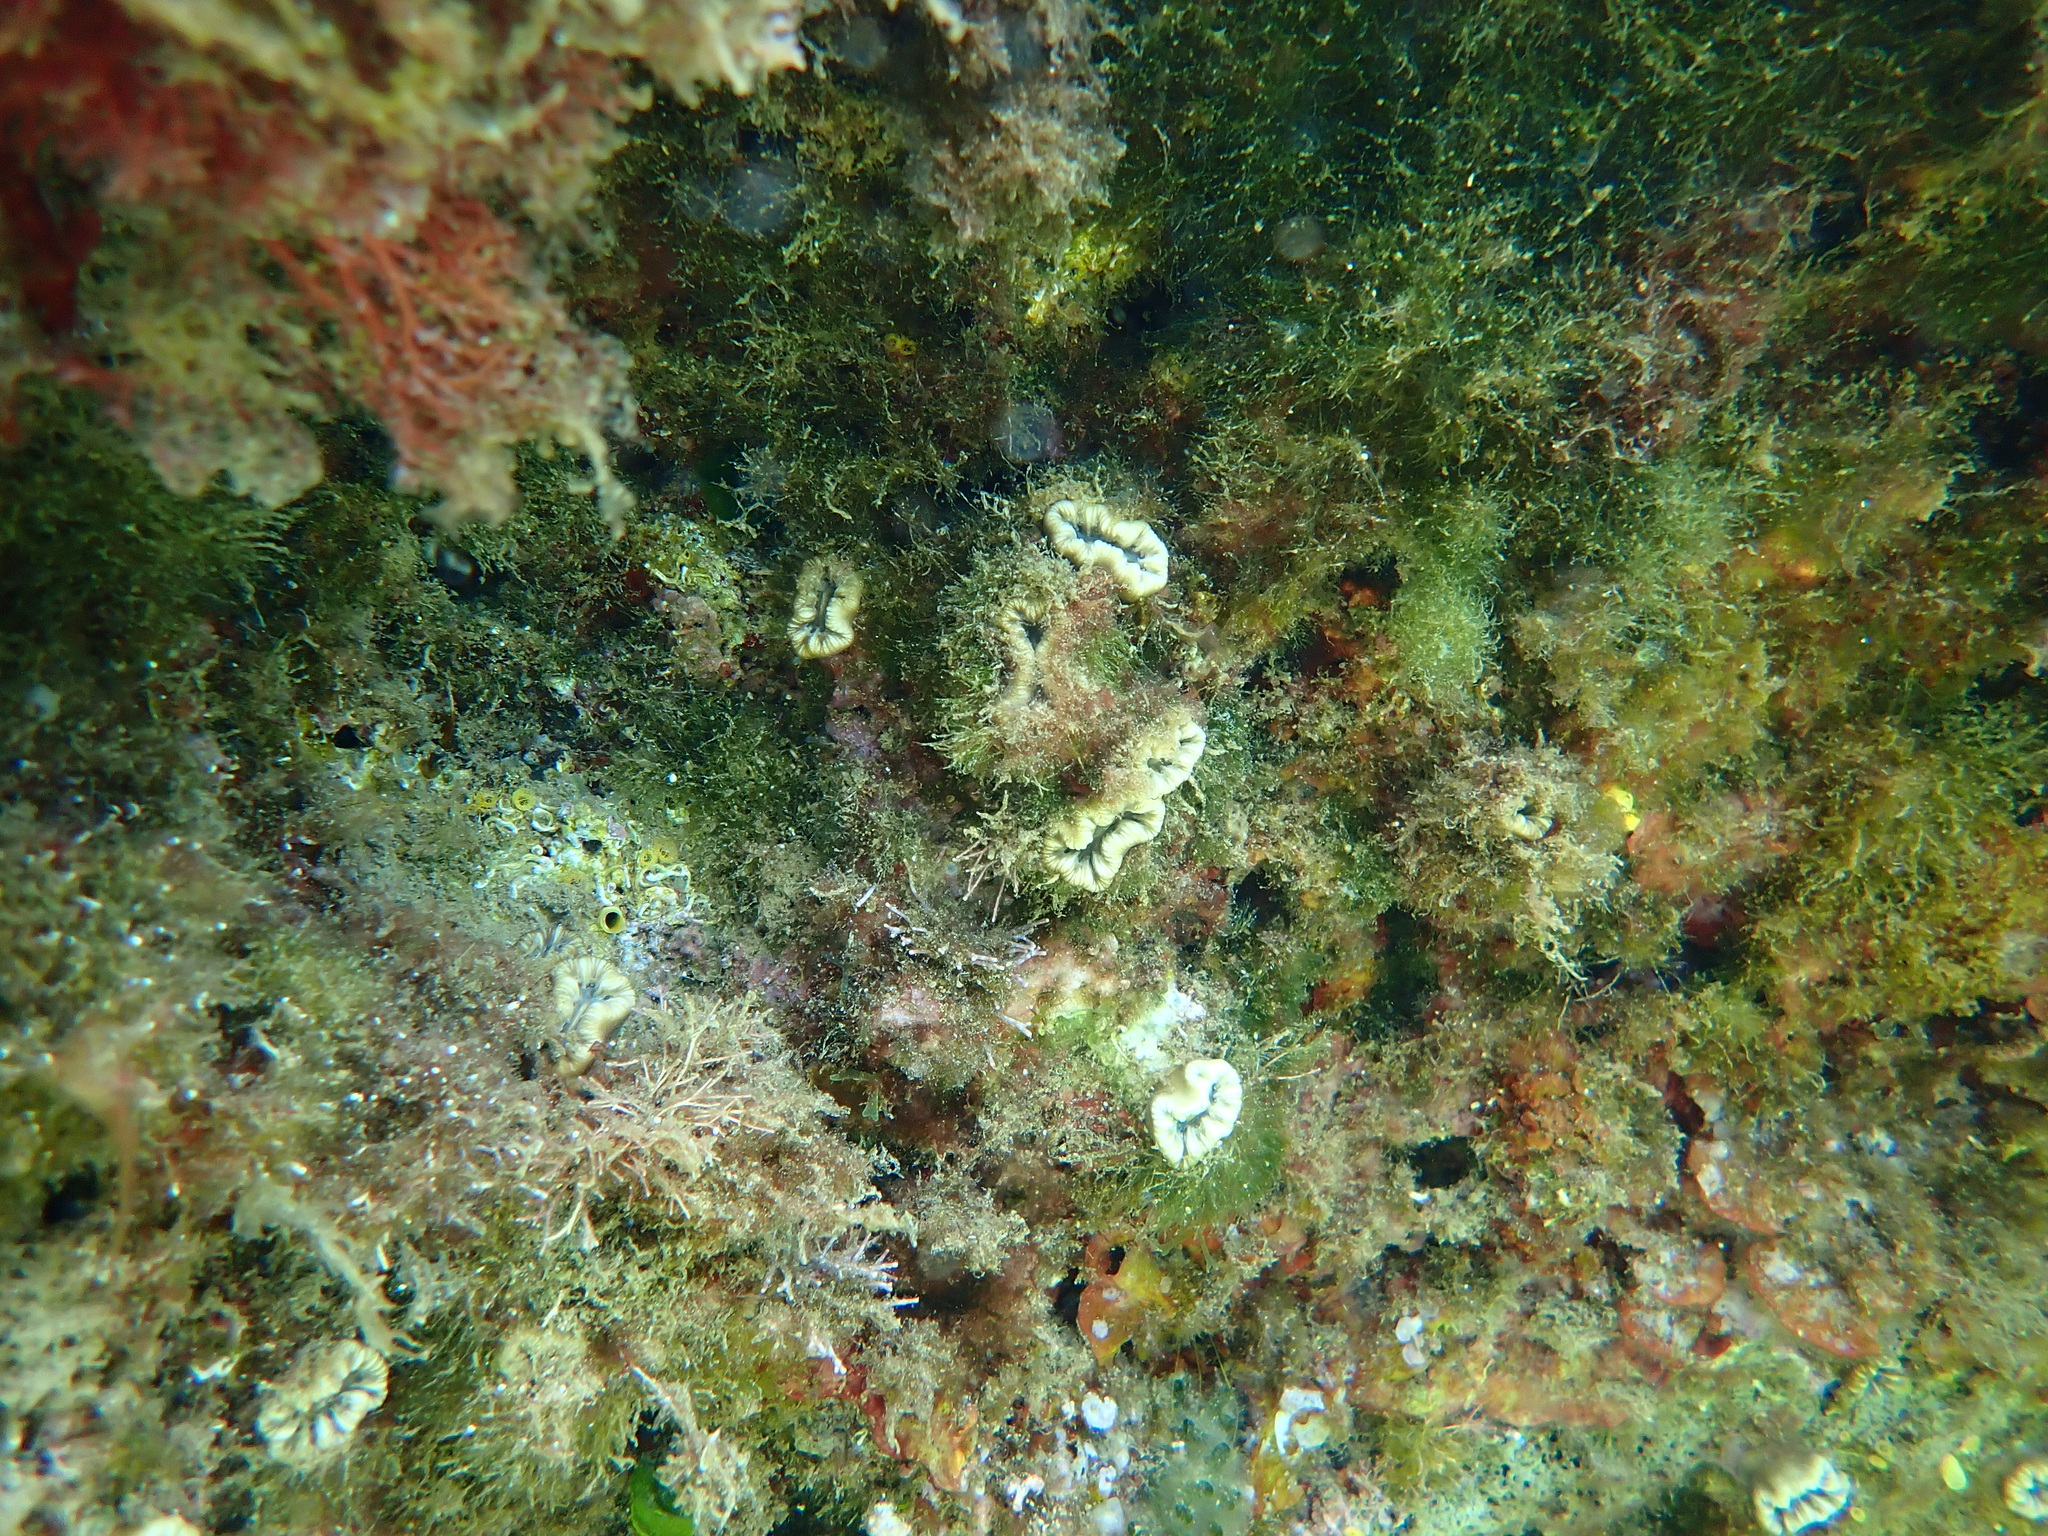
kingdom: Animalia
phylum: Cnidaria
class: Anthozoa
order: Scleractinia
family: Dendrophylliidae
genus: Balanophyllia
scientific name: Balanophyllia europaea
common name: Scarlet coral
